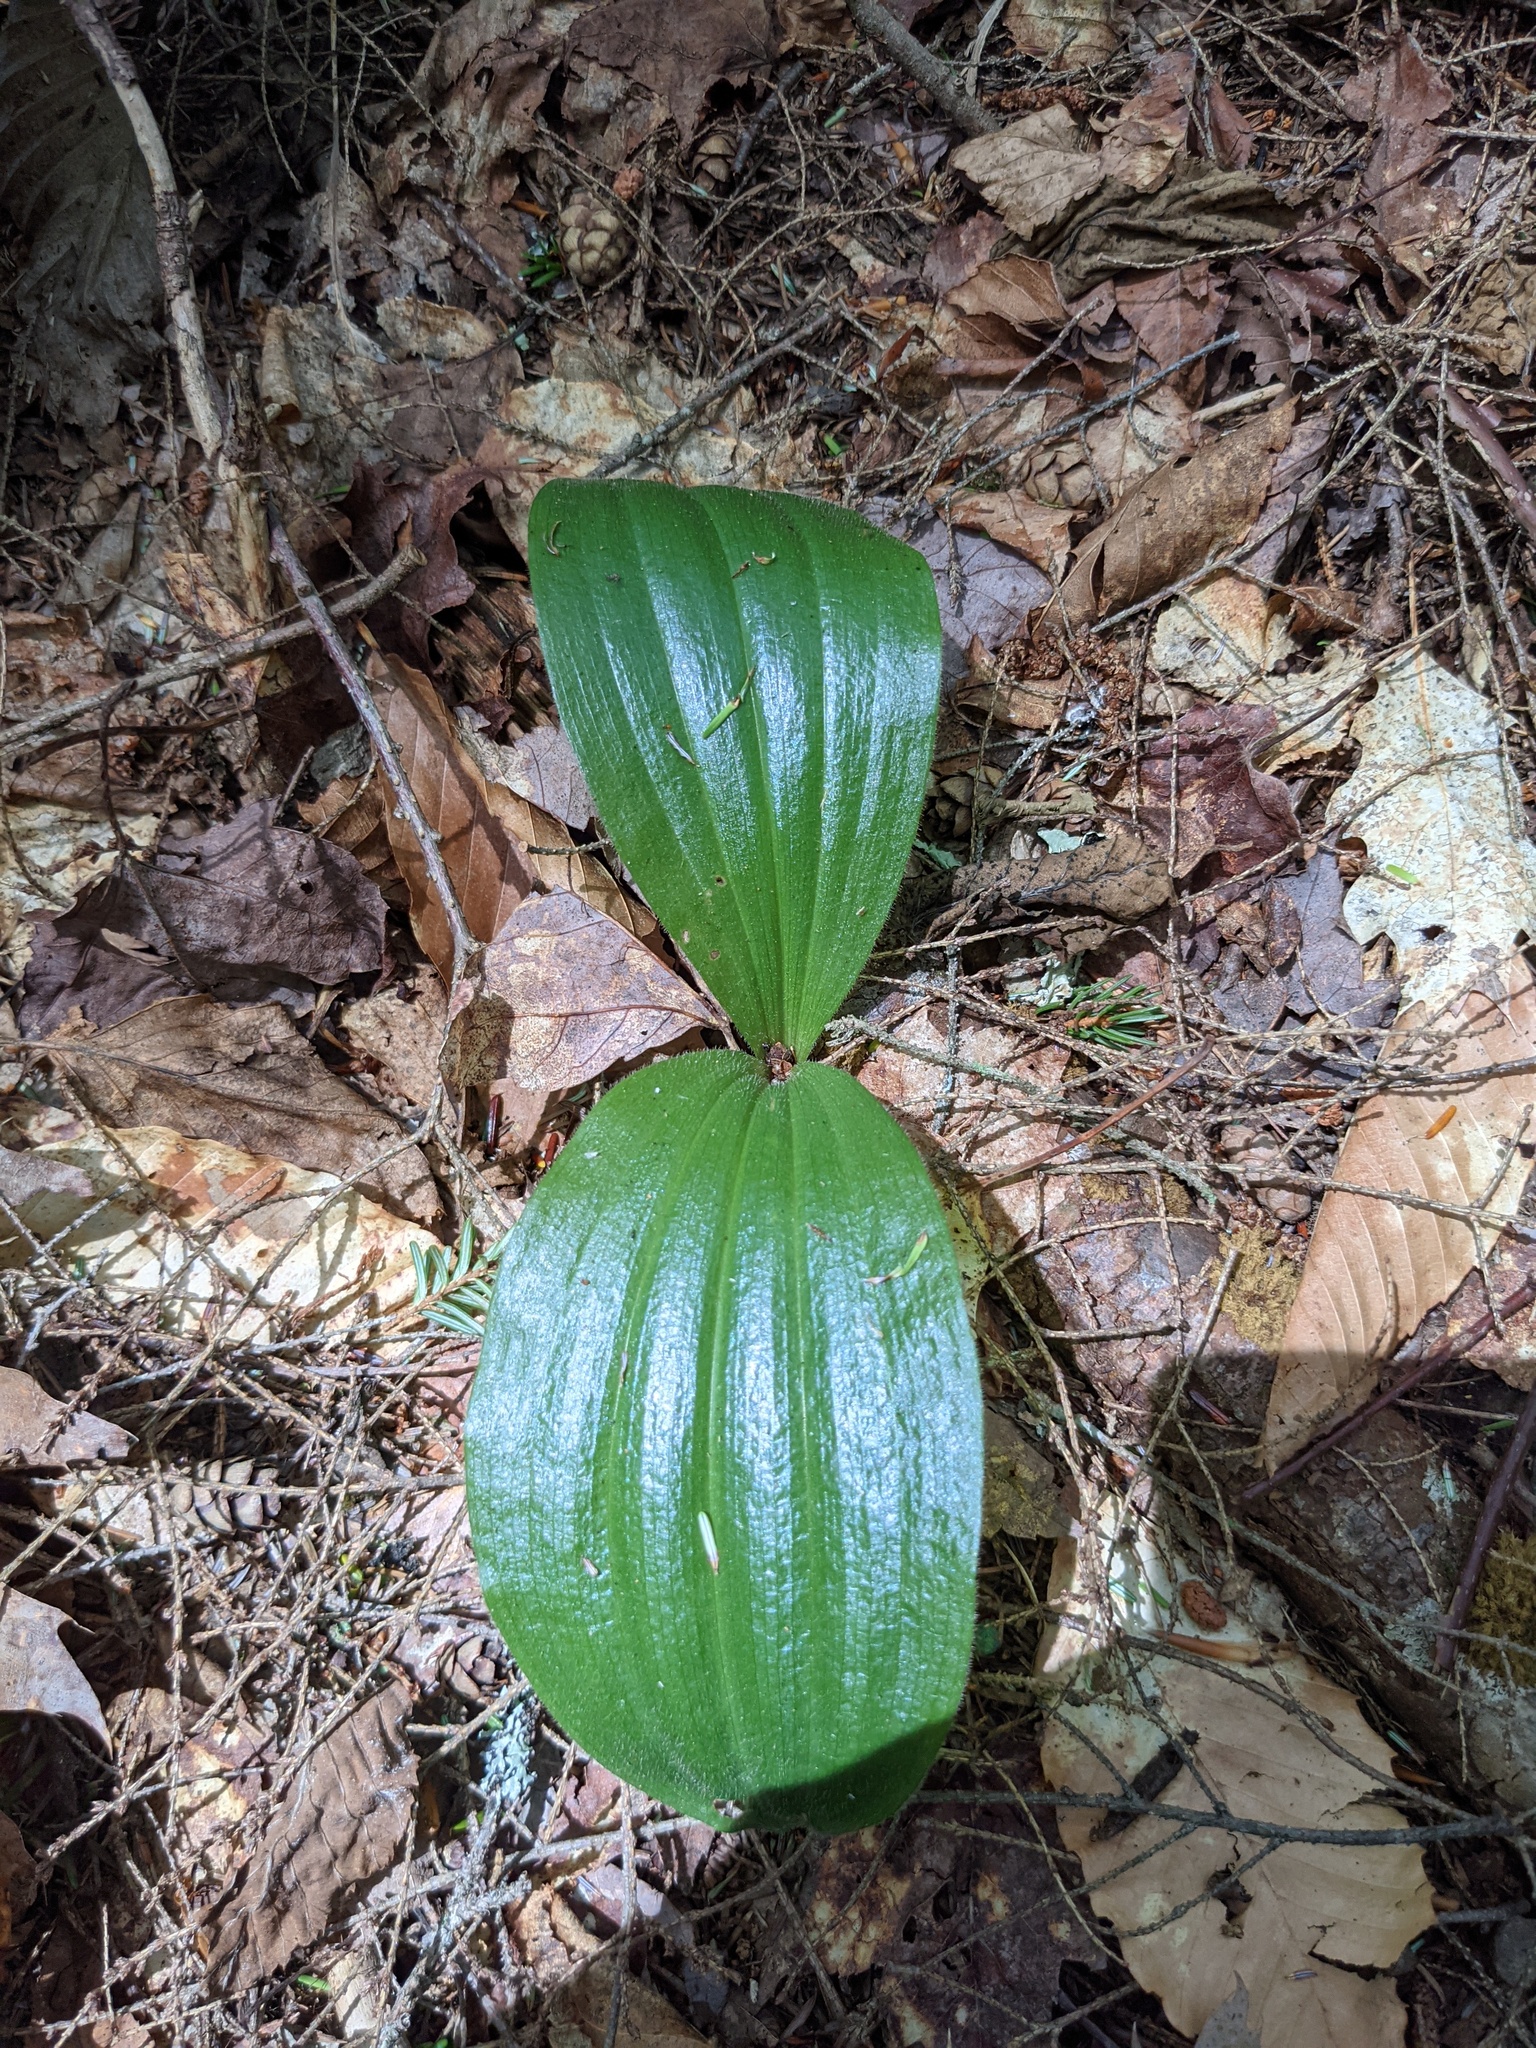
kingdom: Plantae
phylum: Tracheophyta
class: Liliopsida
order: Asparagales
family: Orchidaceae
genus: Cypripedium
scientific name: Cypripedium acaule
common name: Pink lady's-slipper
